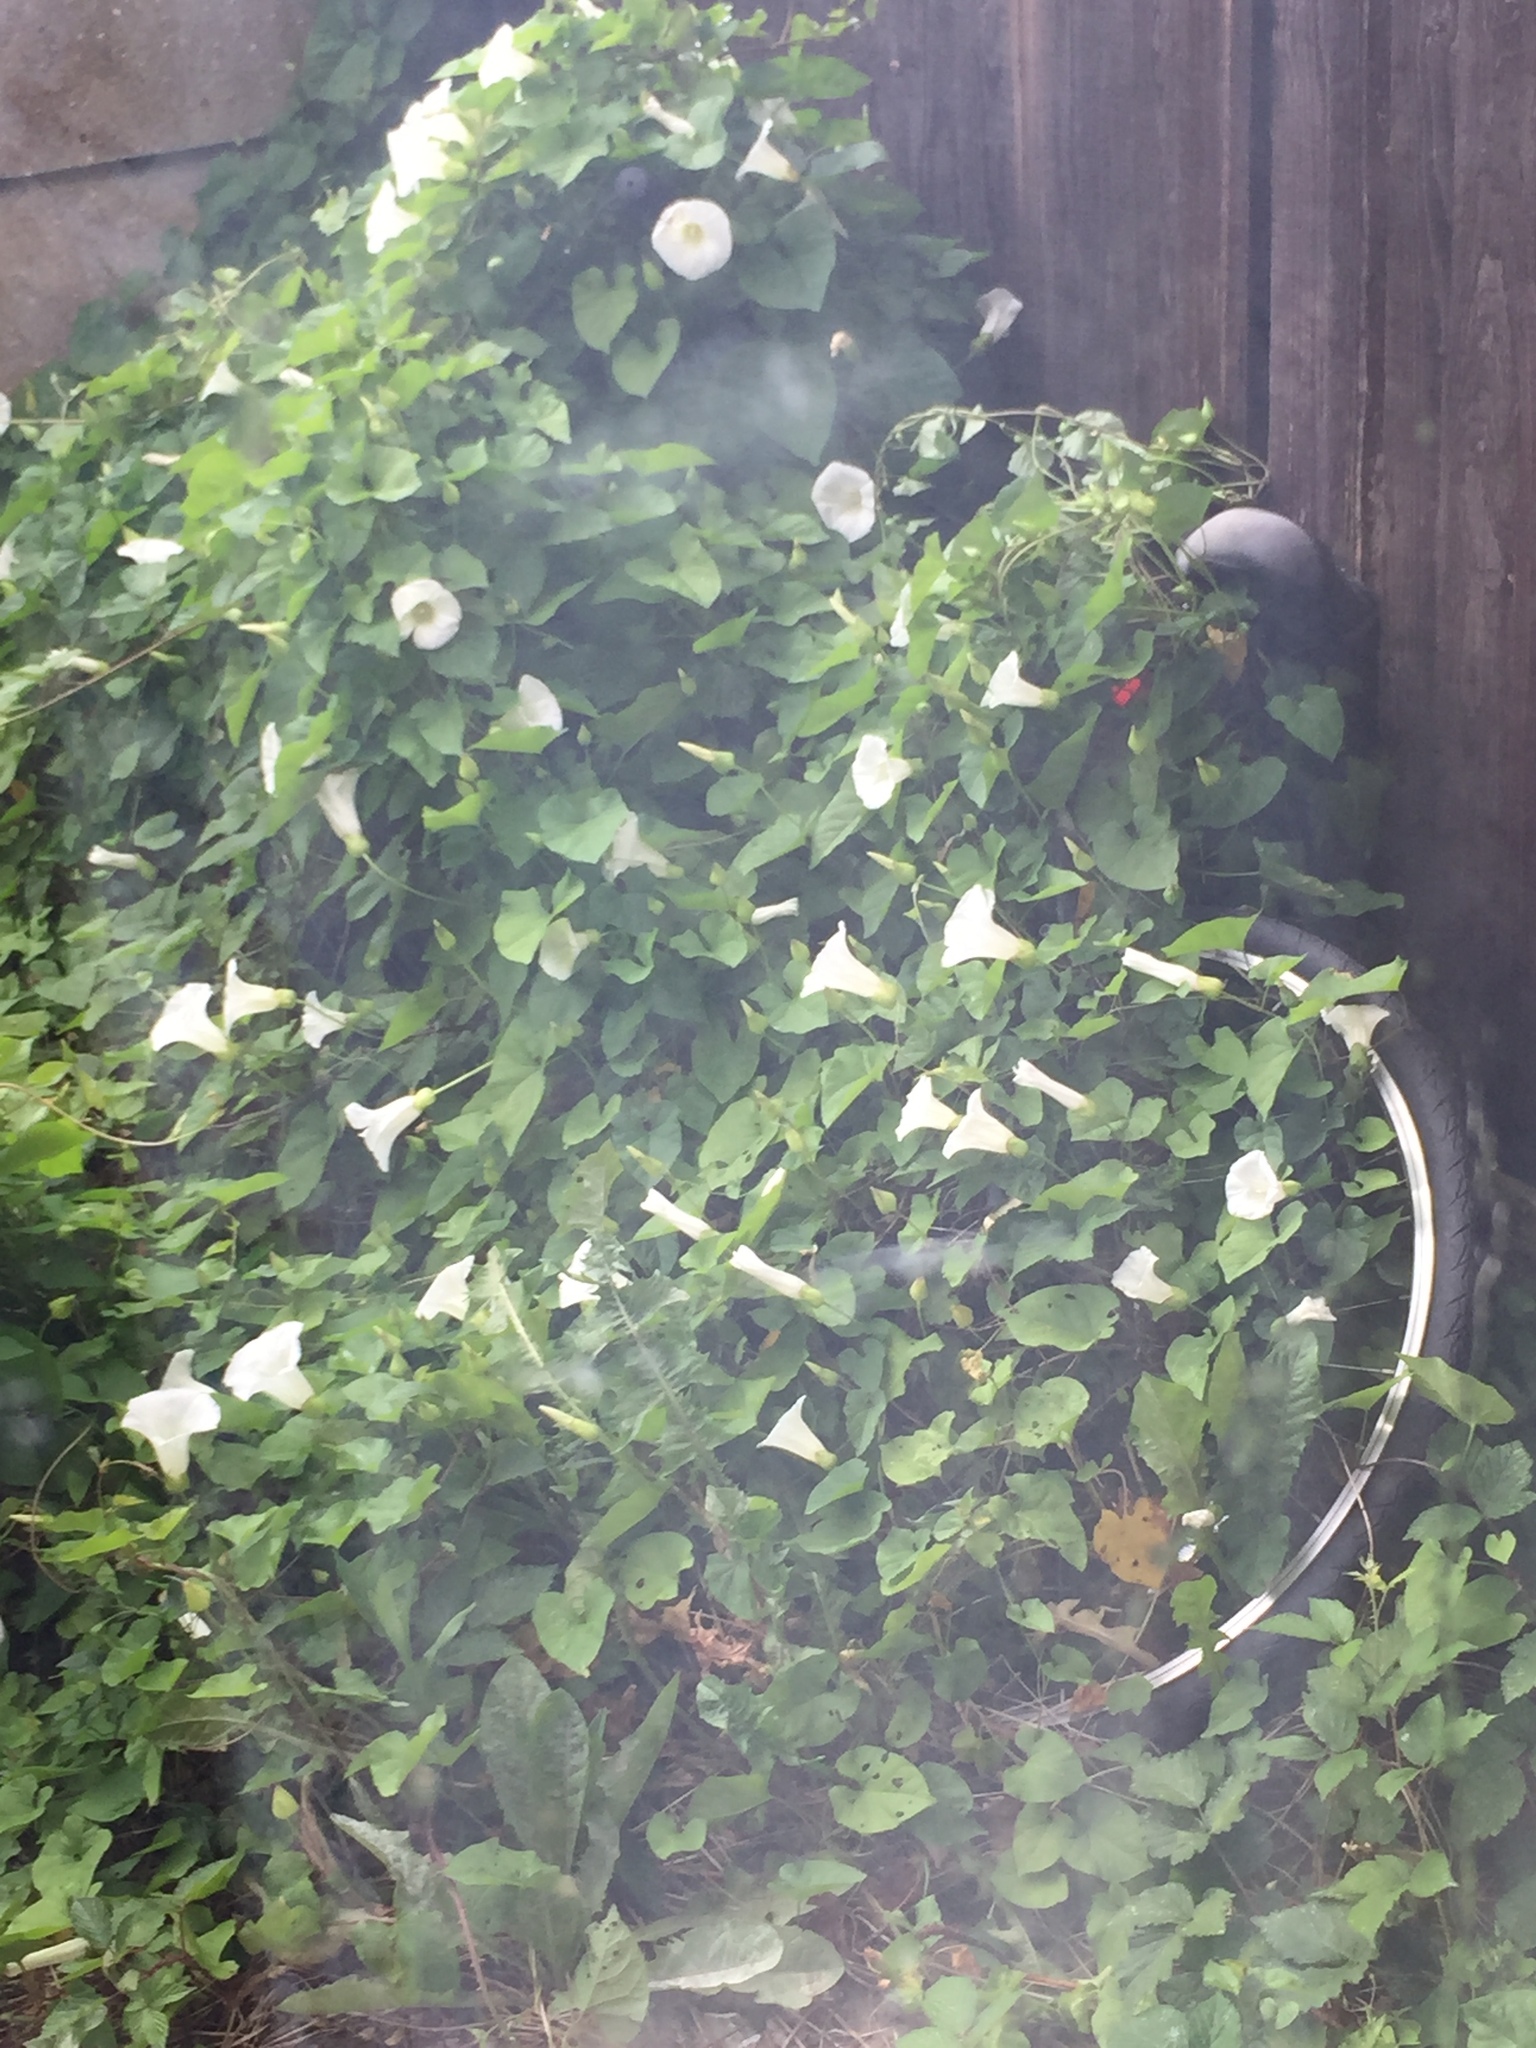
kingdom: Plantae
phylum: Tracheophyta
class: Magnoliopsida
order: Solanales
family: Convolvulaceae
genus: Calystegia
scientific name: Calystegia silvatica
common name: Large bindweed
